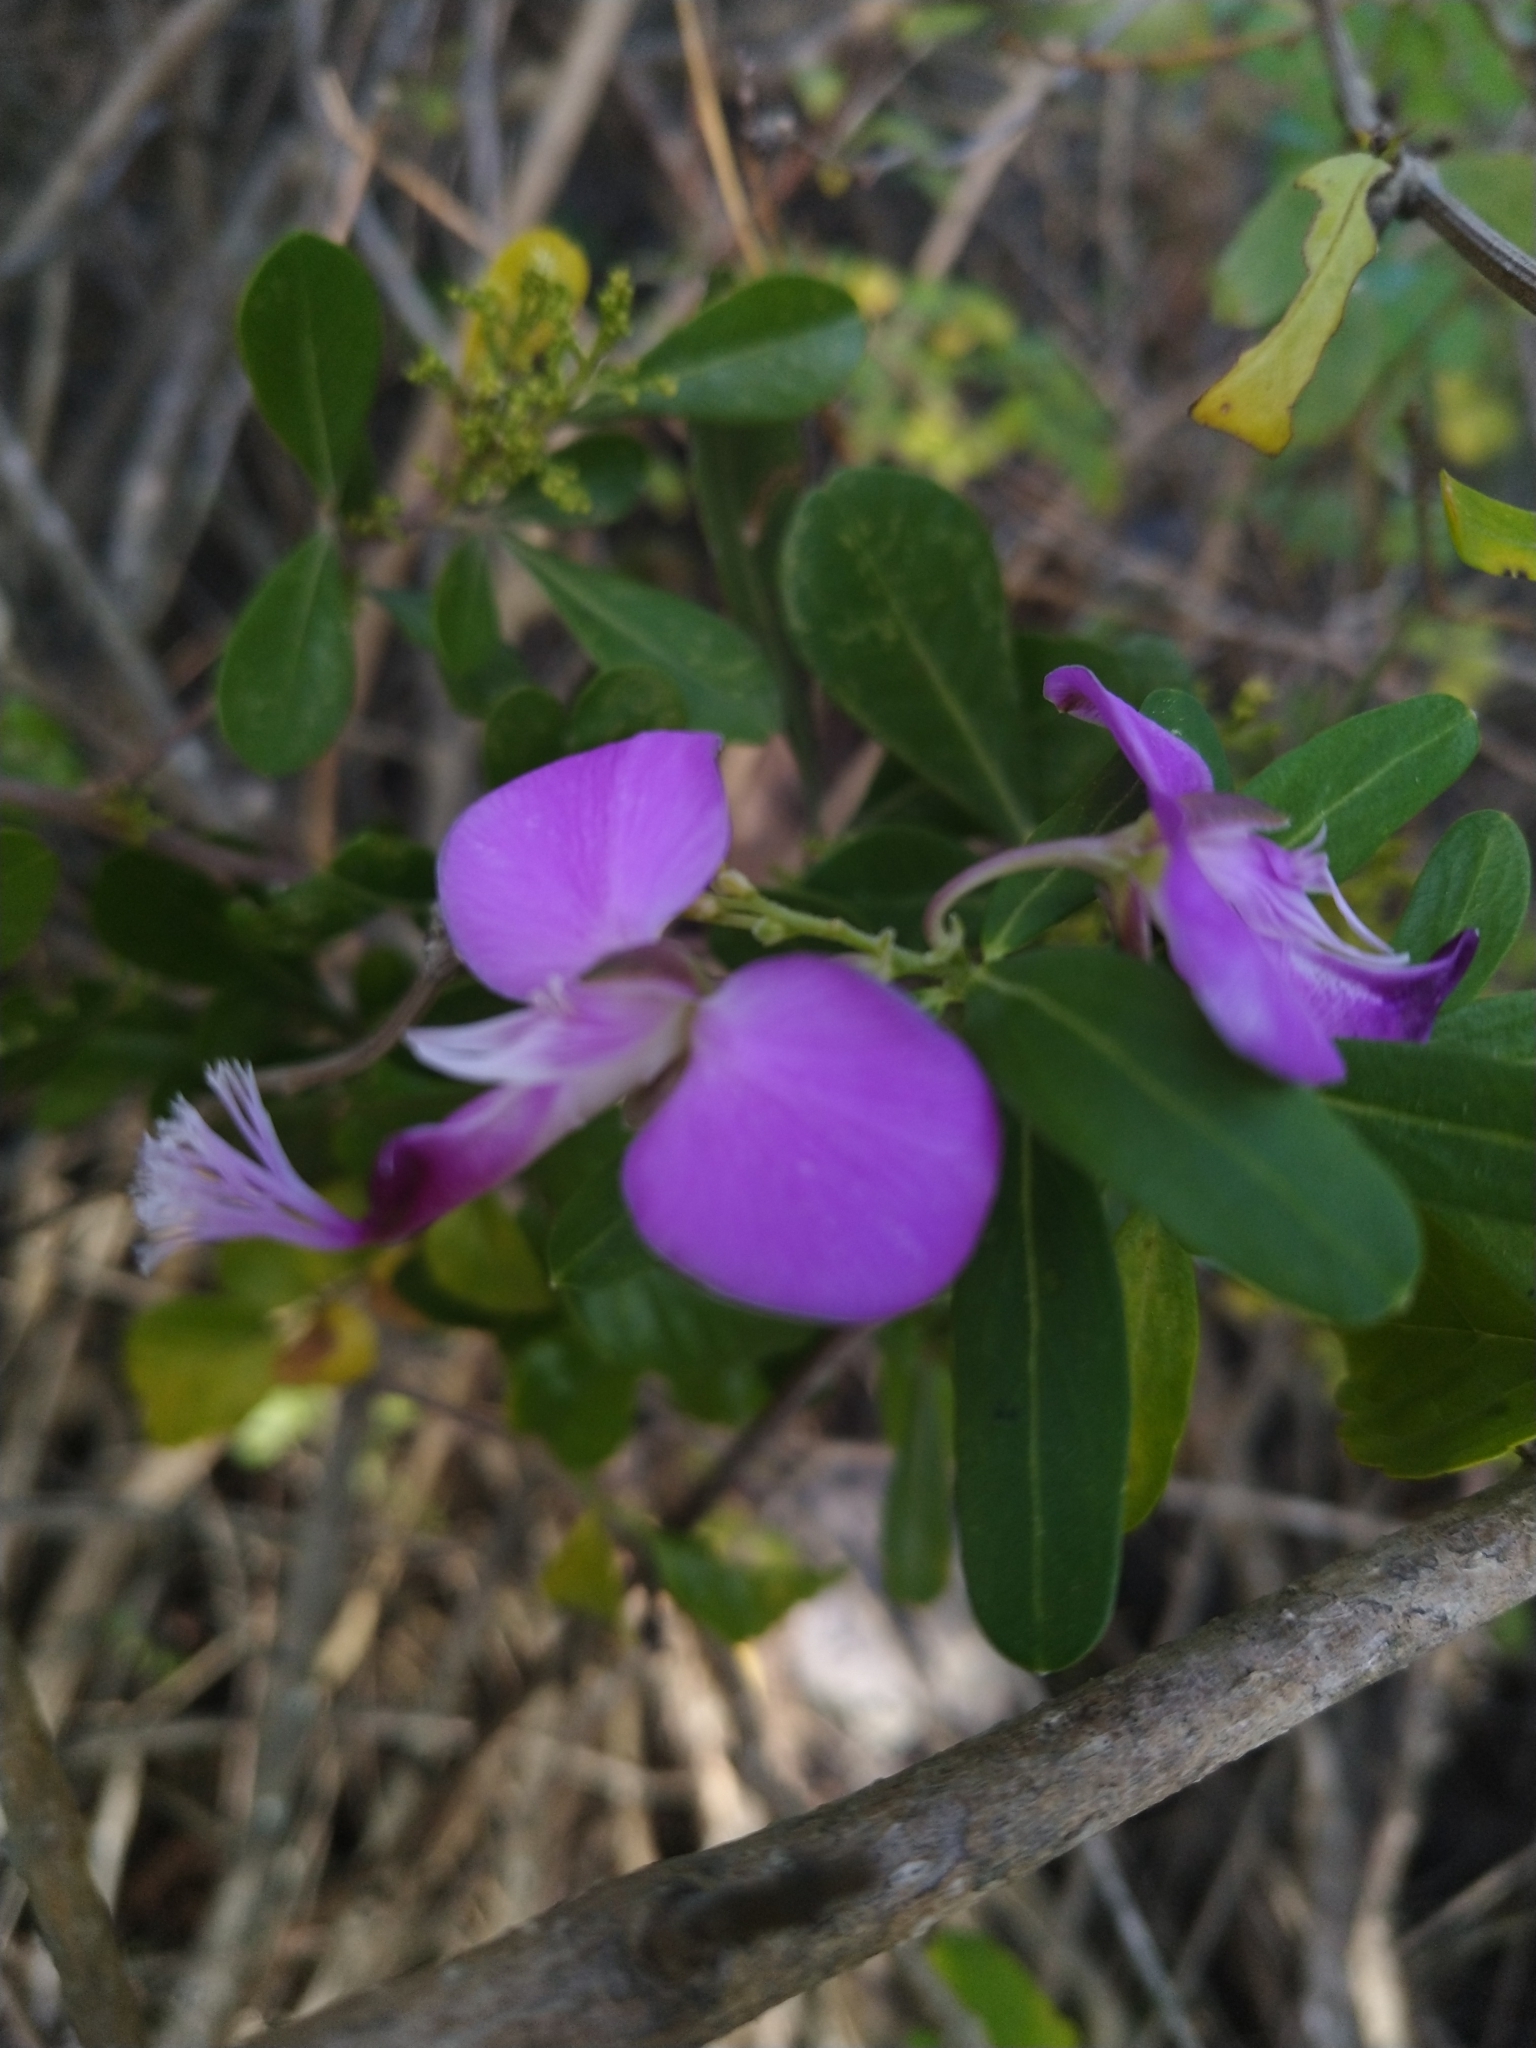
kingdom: Plantae
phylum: Tracheophyta
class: Magnoliopsida
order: Fabales
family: Polygalaceae
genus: Polygala
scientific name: Polygala myrtifolia
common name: Myrtle-leaf milkwort
